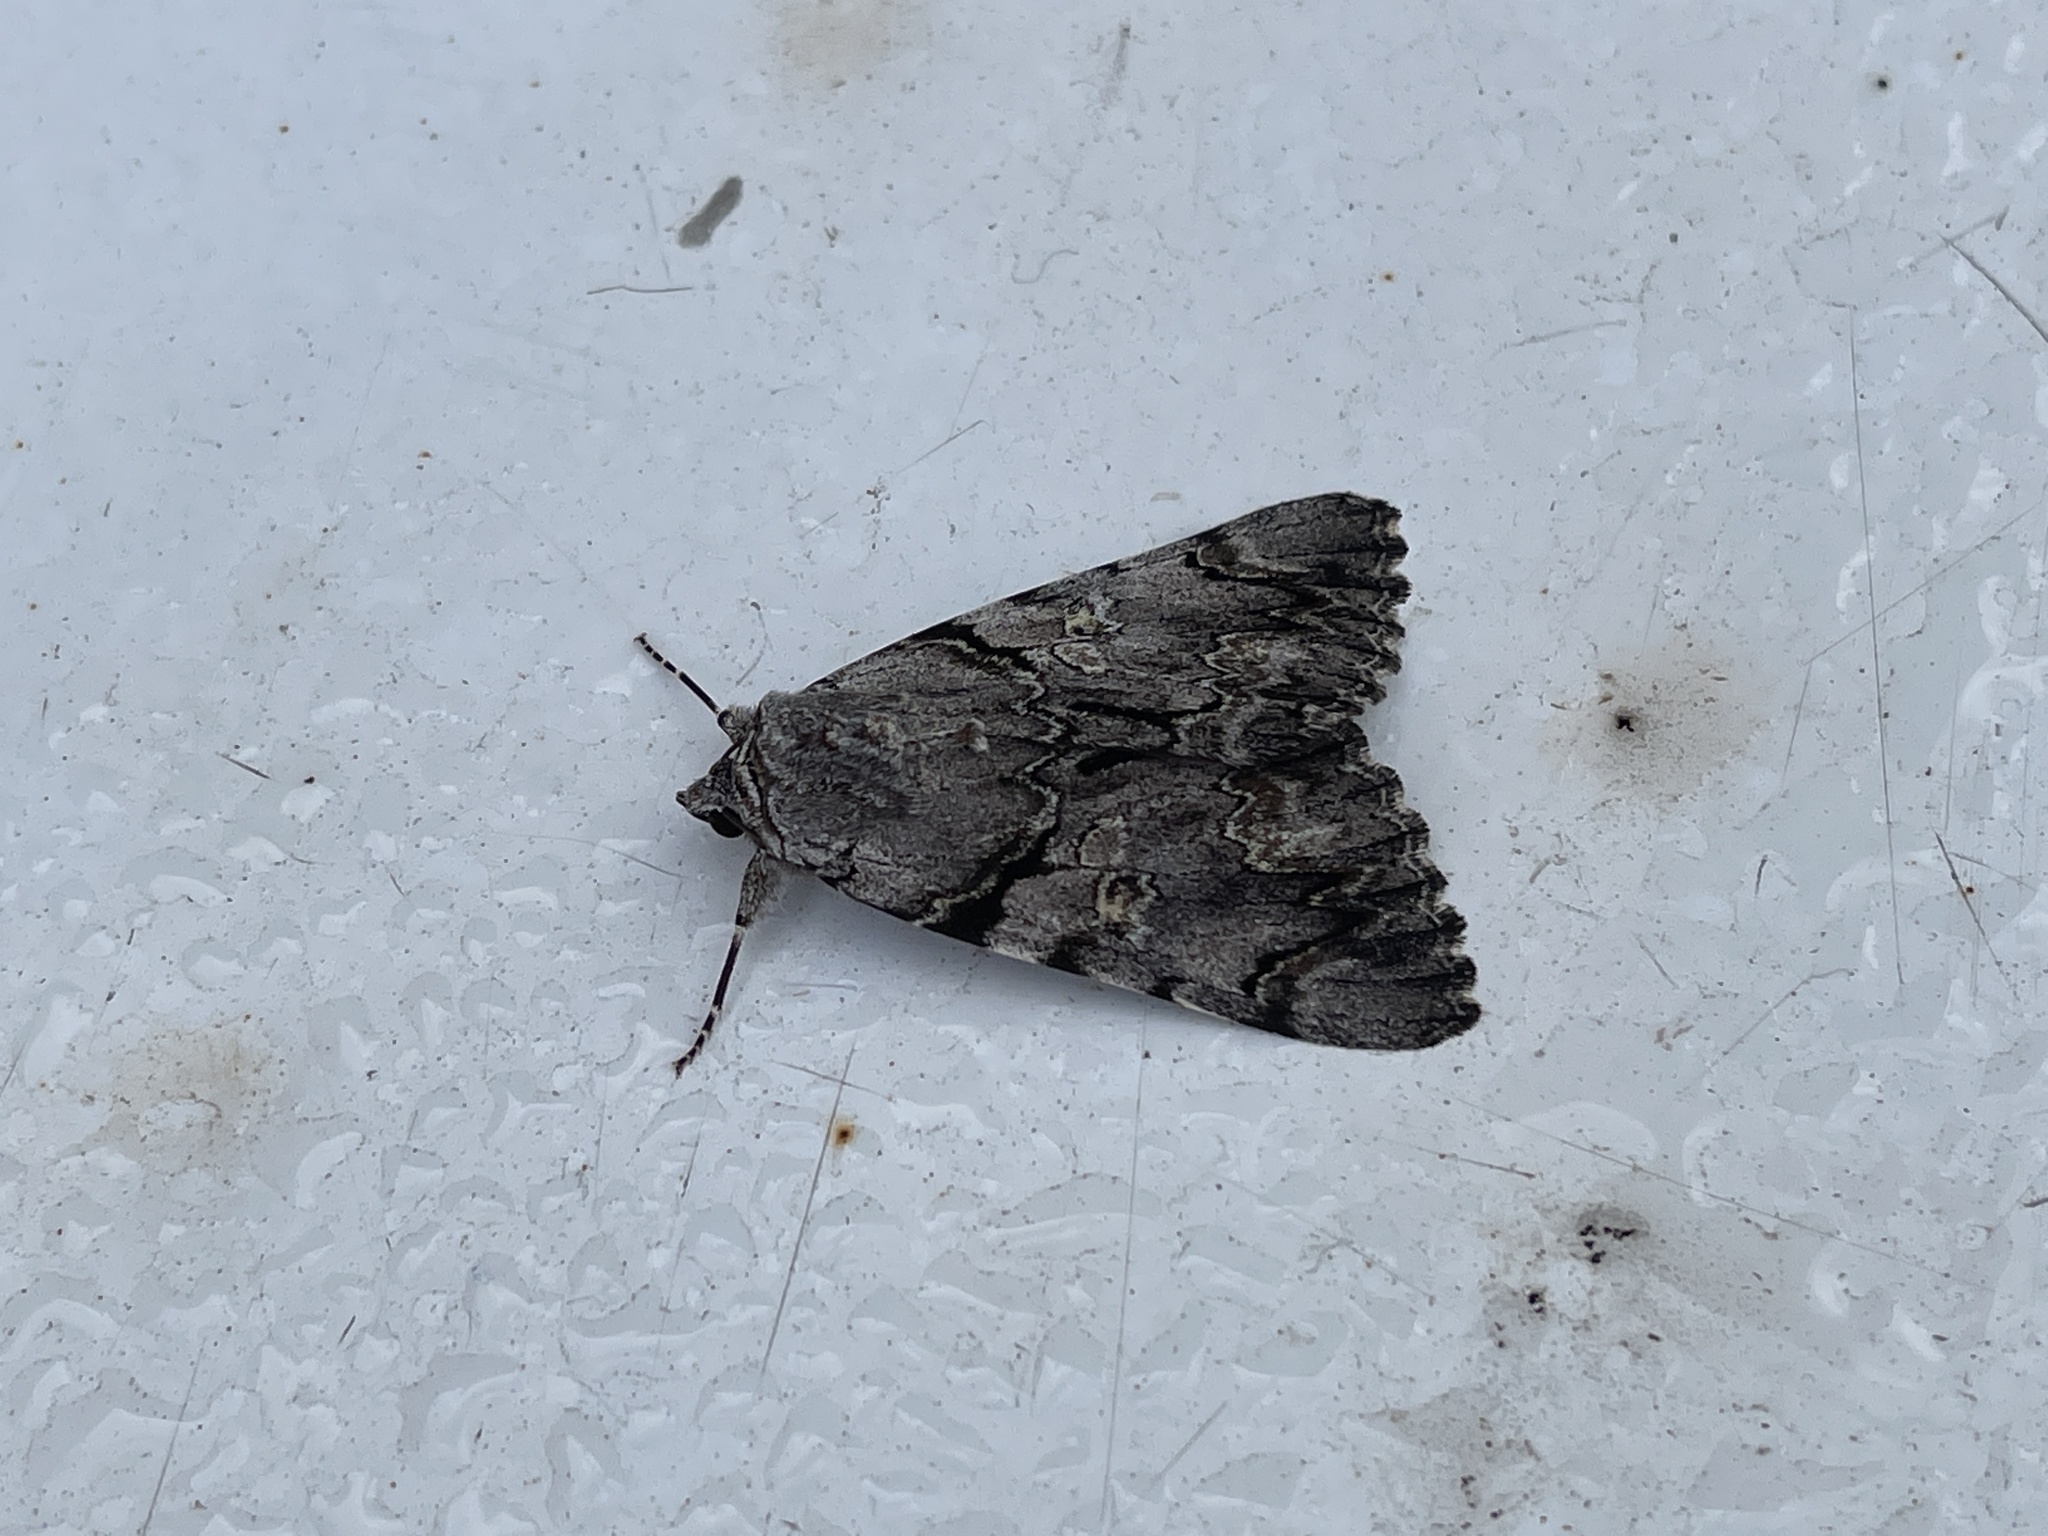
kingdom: Animalia
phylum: Arthropoda
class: Insecta
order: Lepidoptera
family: Erebidae
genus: Catocala
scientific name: Catocala verrilliana
